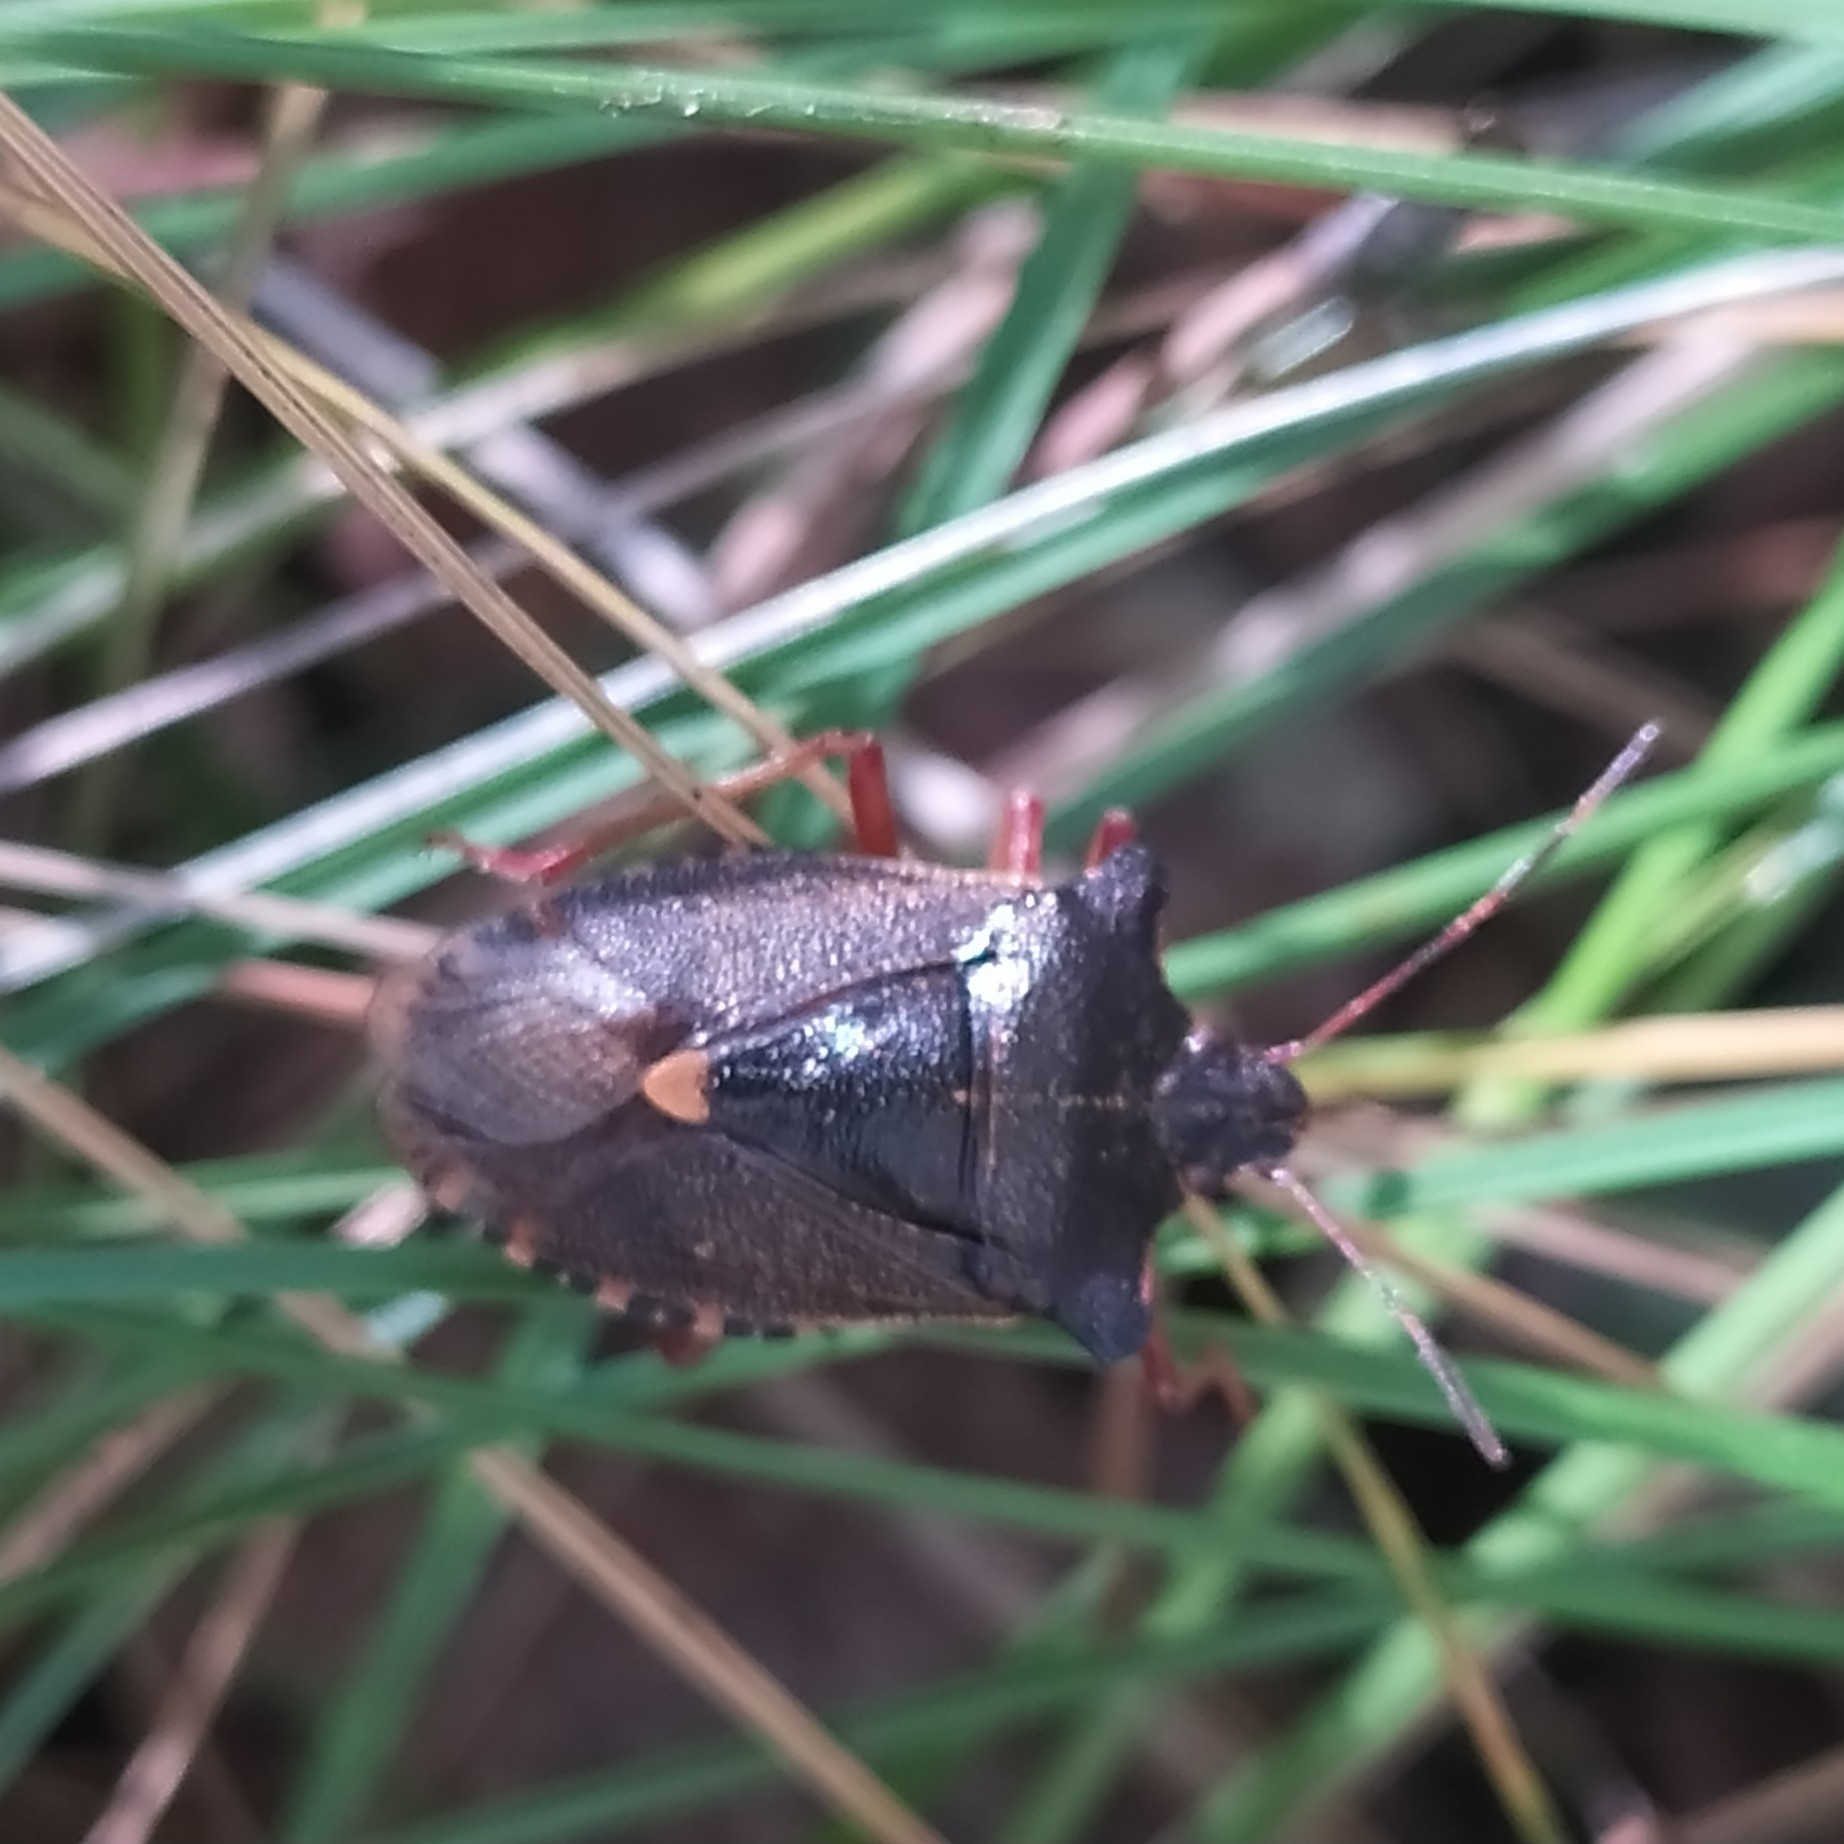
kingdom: Animalia
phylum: Arthropoda
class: Insecta
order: Hemiptera
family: Pentatomidae
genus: Pentatoma
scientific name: Pentatoma rufipes
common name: Forest bug
